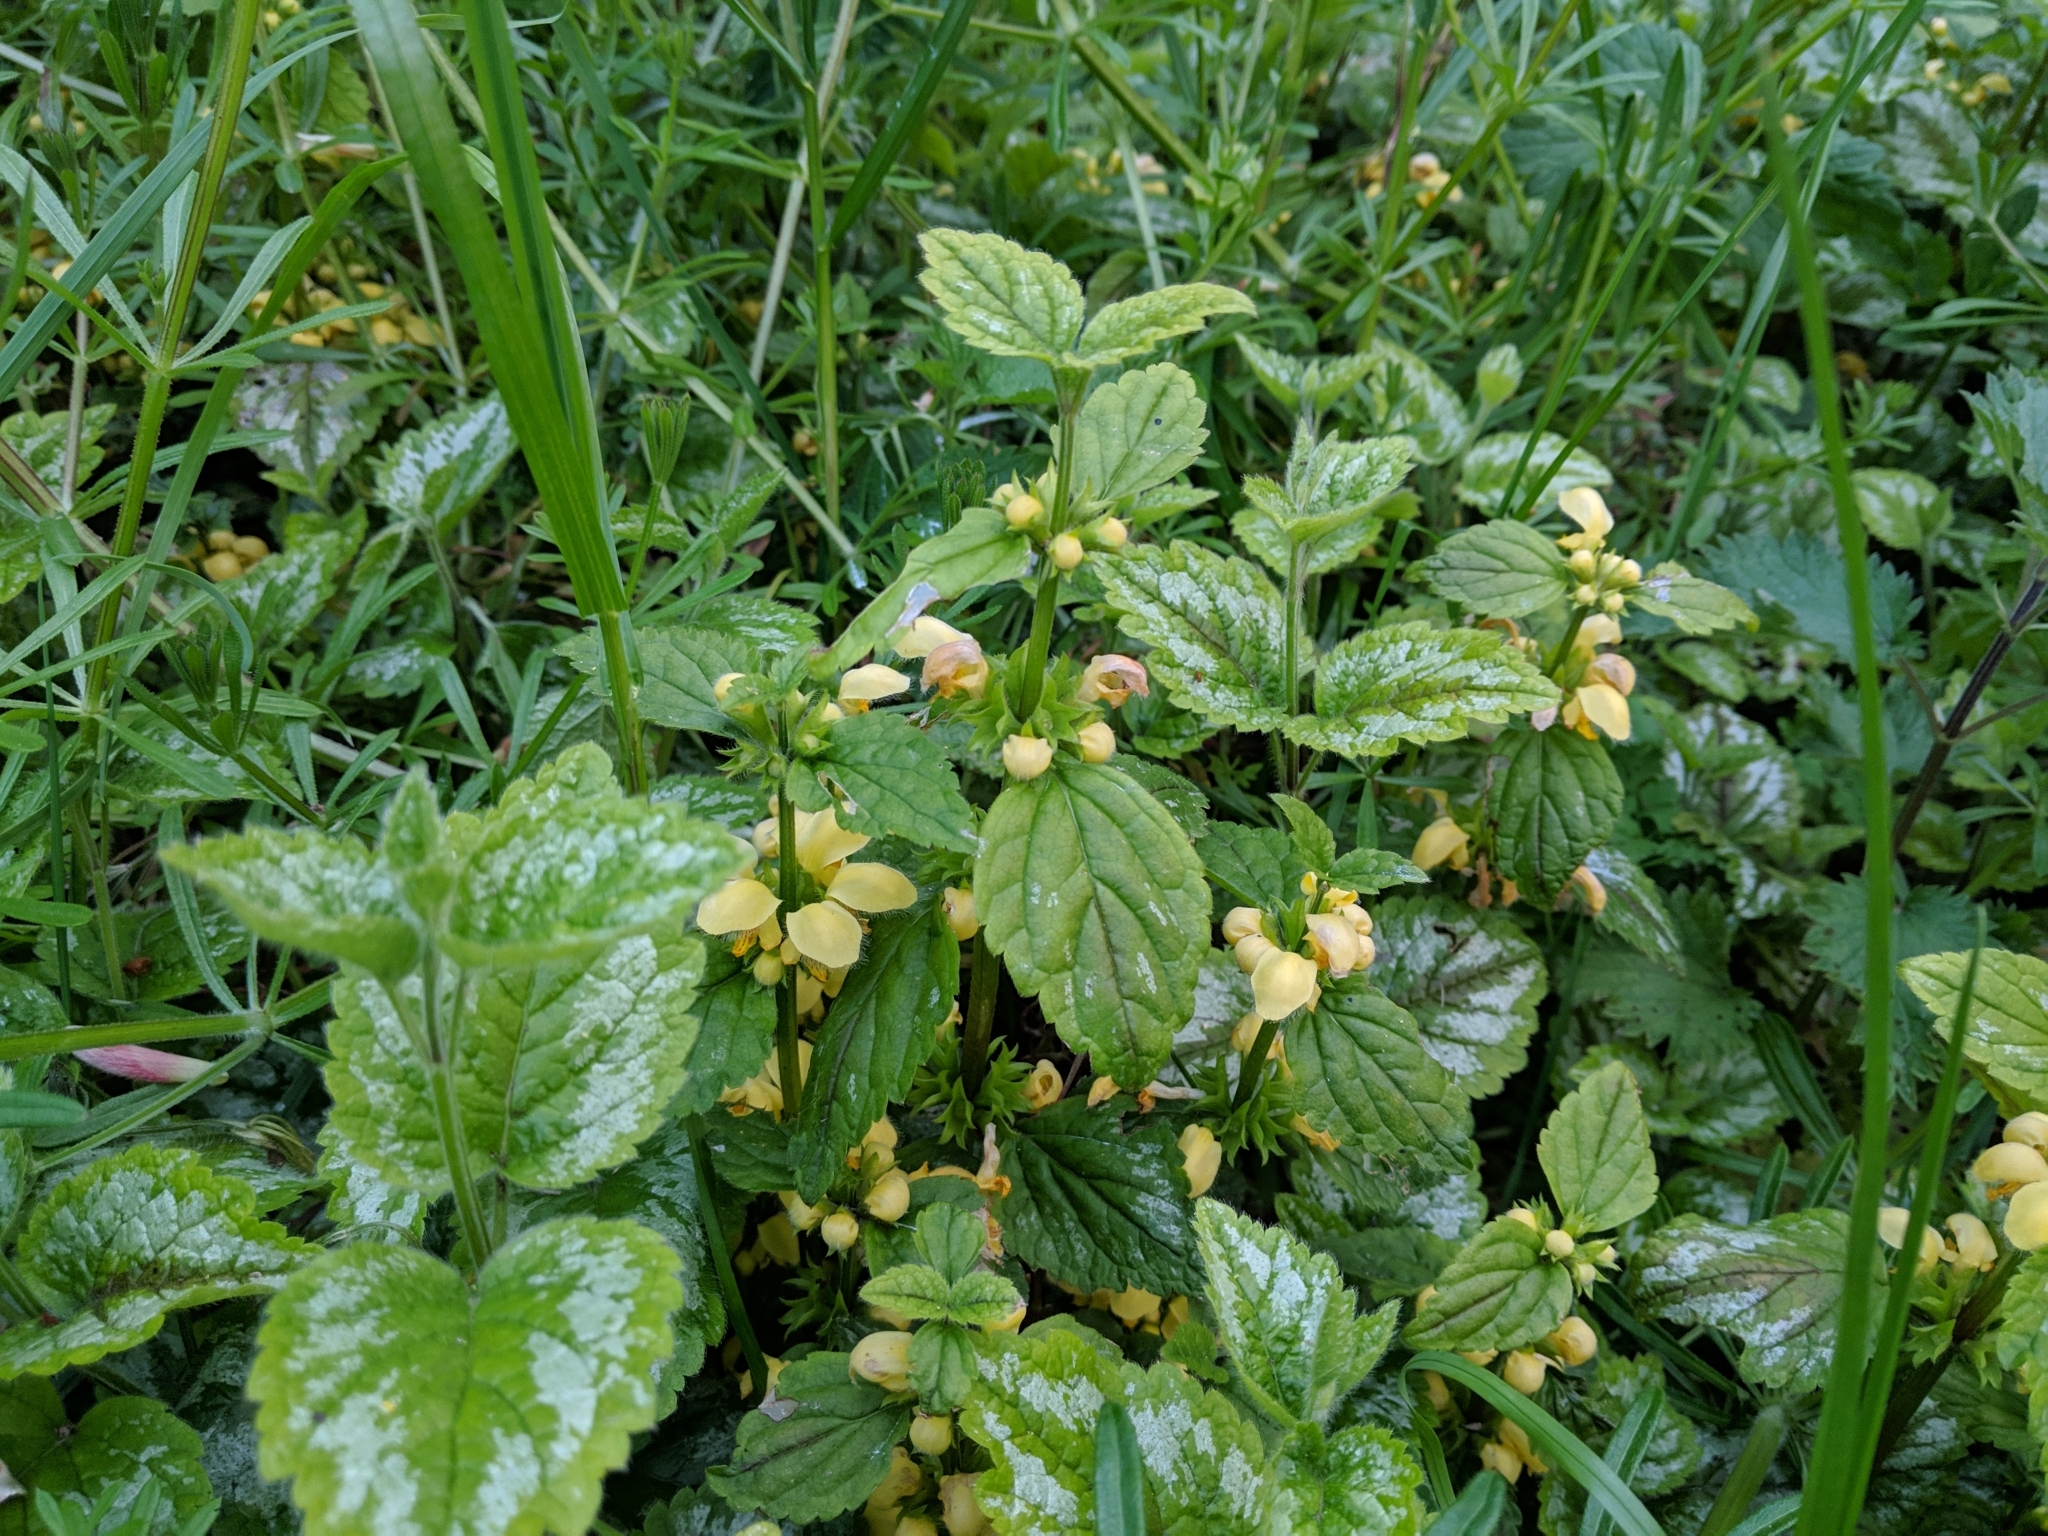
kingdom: Plantae
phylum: Tracheophyta
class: Magnoliopsida
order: Lamiales
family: Lamiaceae
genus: Lamium
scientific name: Lamium galeobdolon
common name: Yellow archangel
